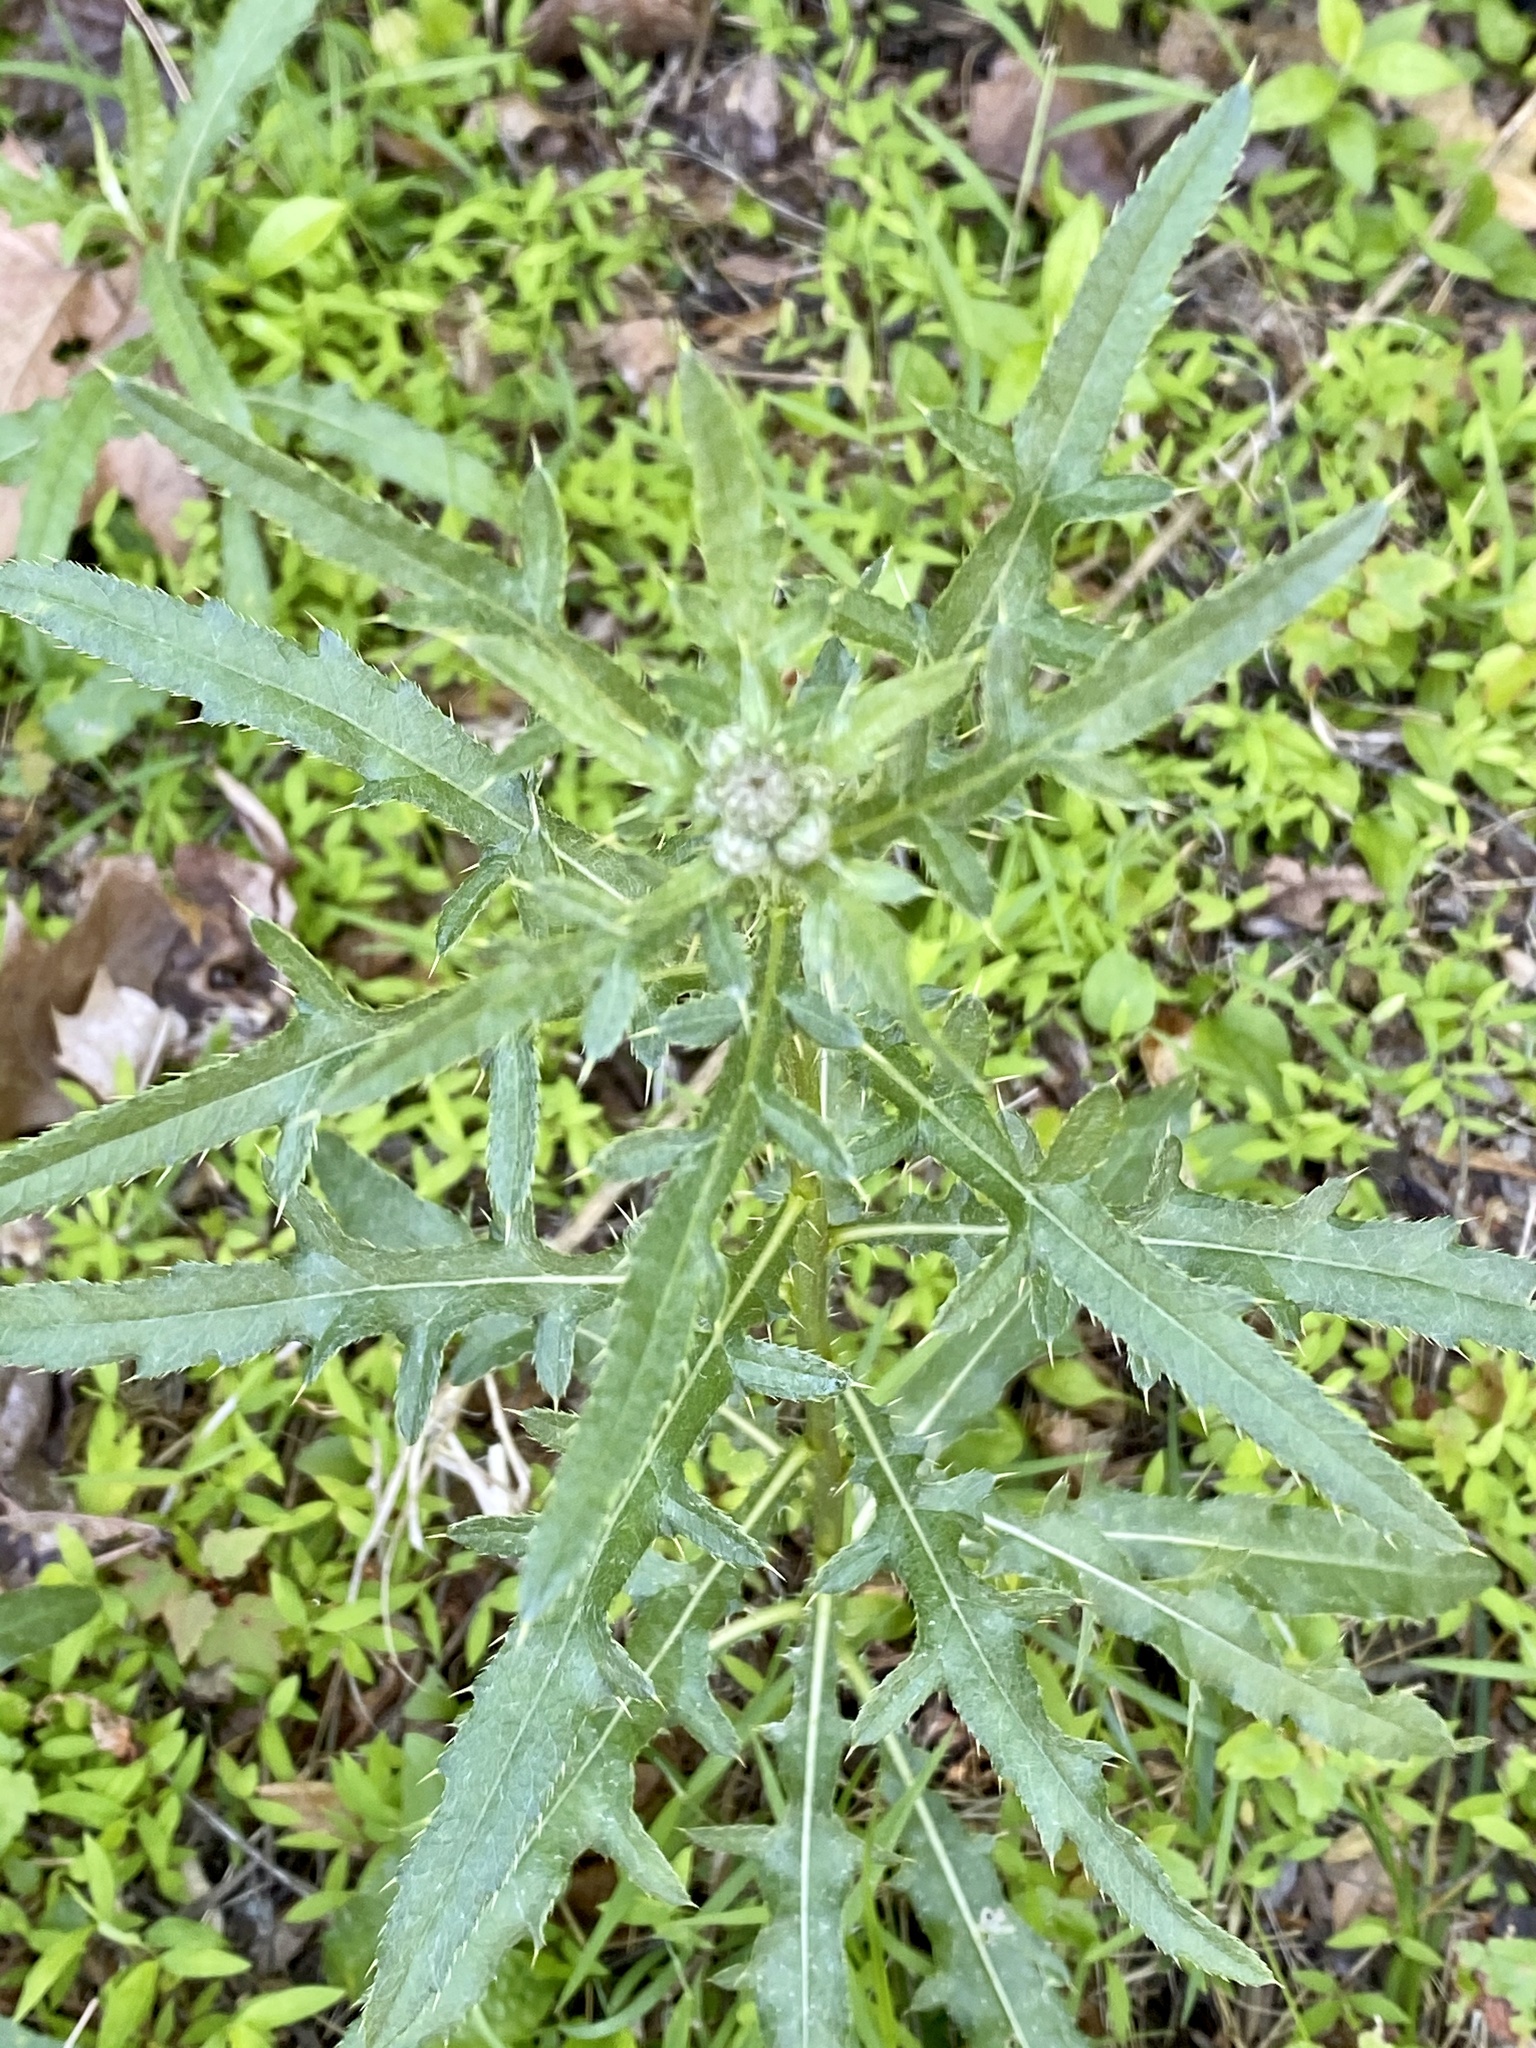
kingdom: Plantae
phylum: Tracheophyta
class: Magnoliopsida
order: Asterales
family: Asteraceae
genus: Cirsium
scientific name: Cirsium arvense
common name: Creeping thistle
